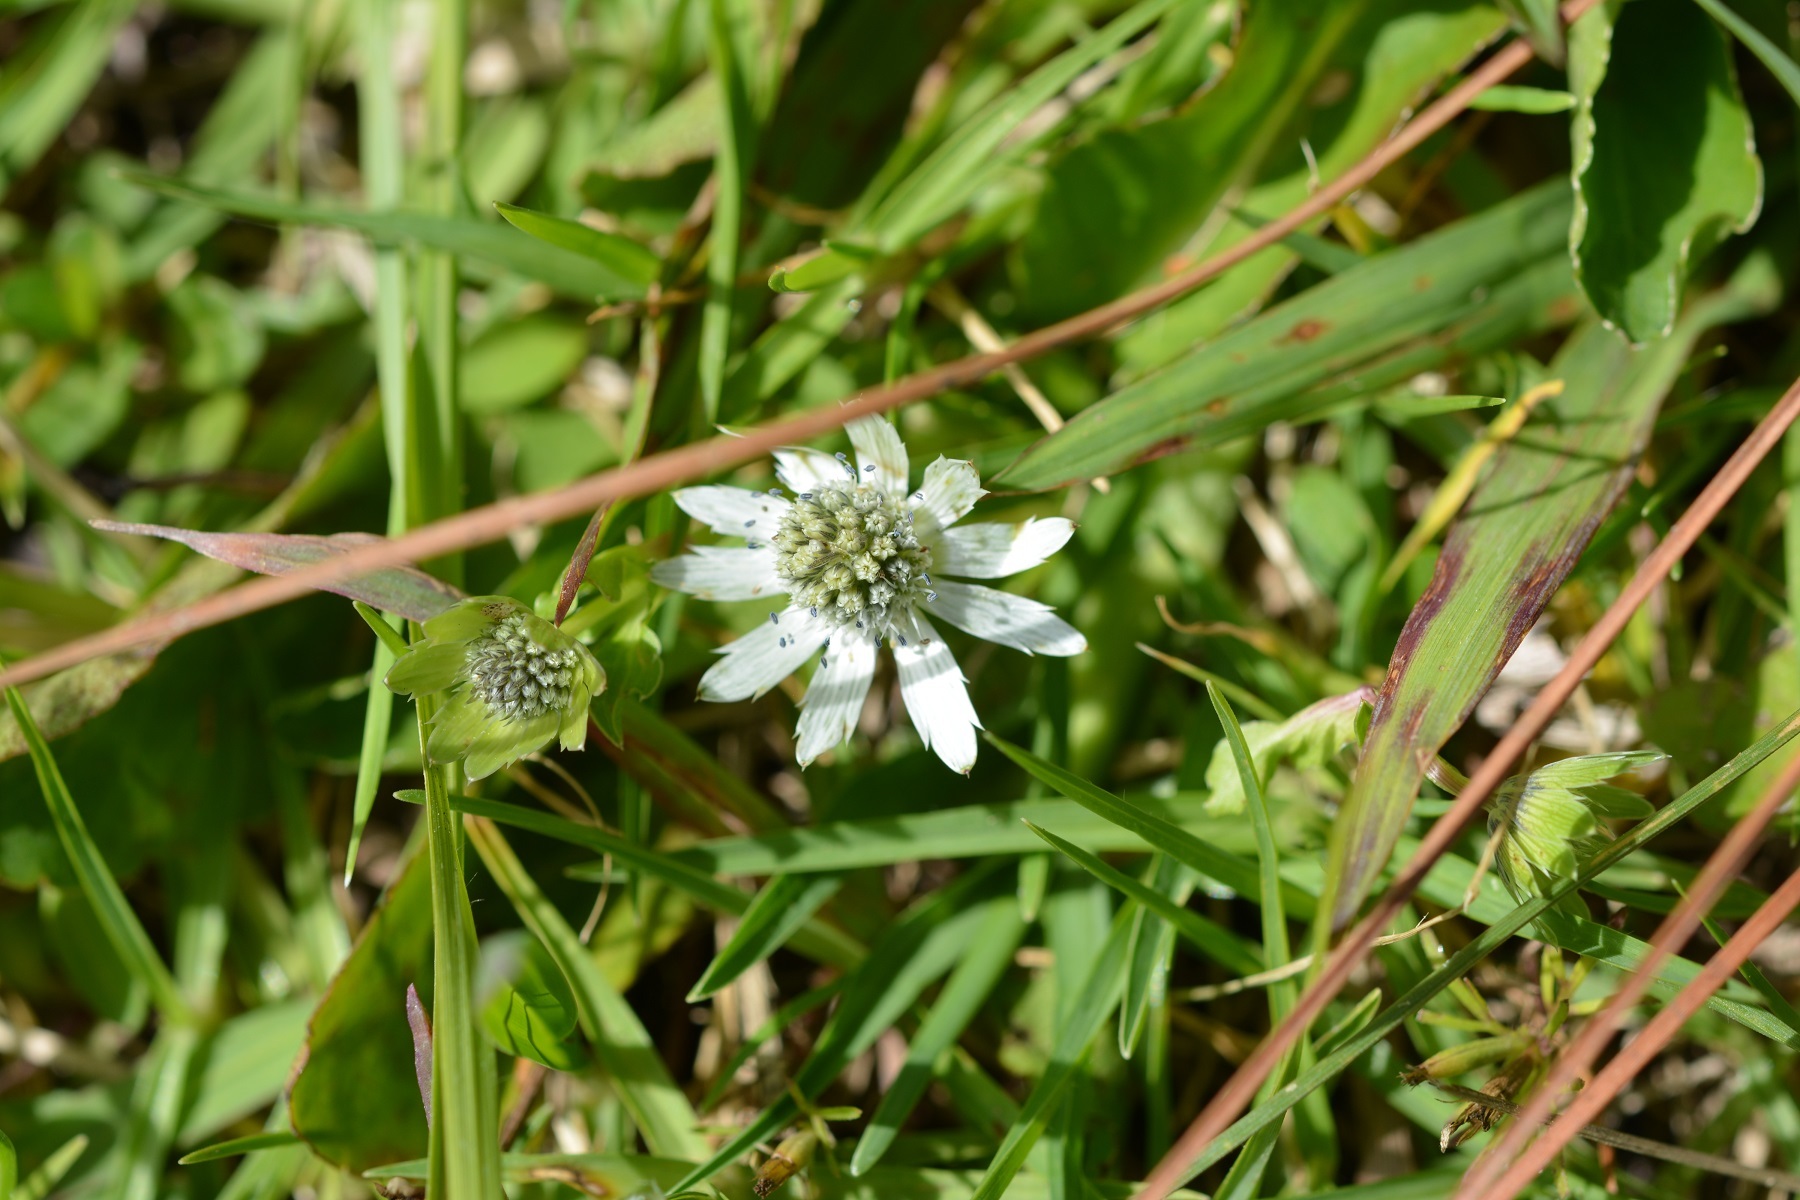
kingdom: Plantae
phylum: Tracheophyta
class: Magnoliopsida
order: Apiales
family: Apiaceae
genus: Eryngium
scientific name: Eryngium scaposum
